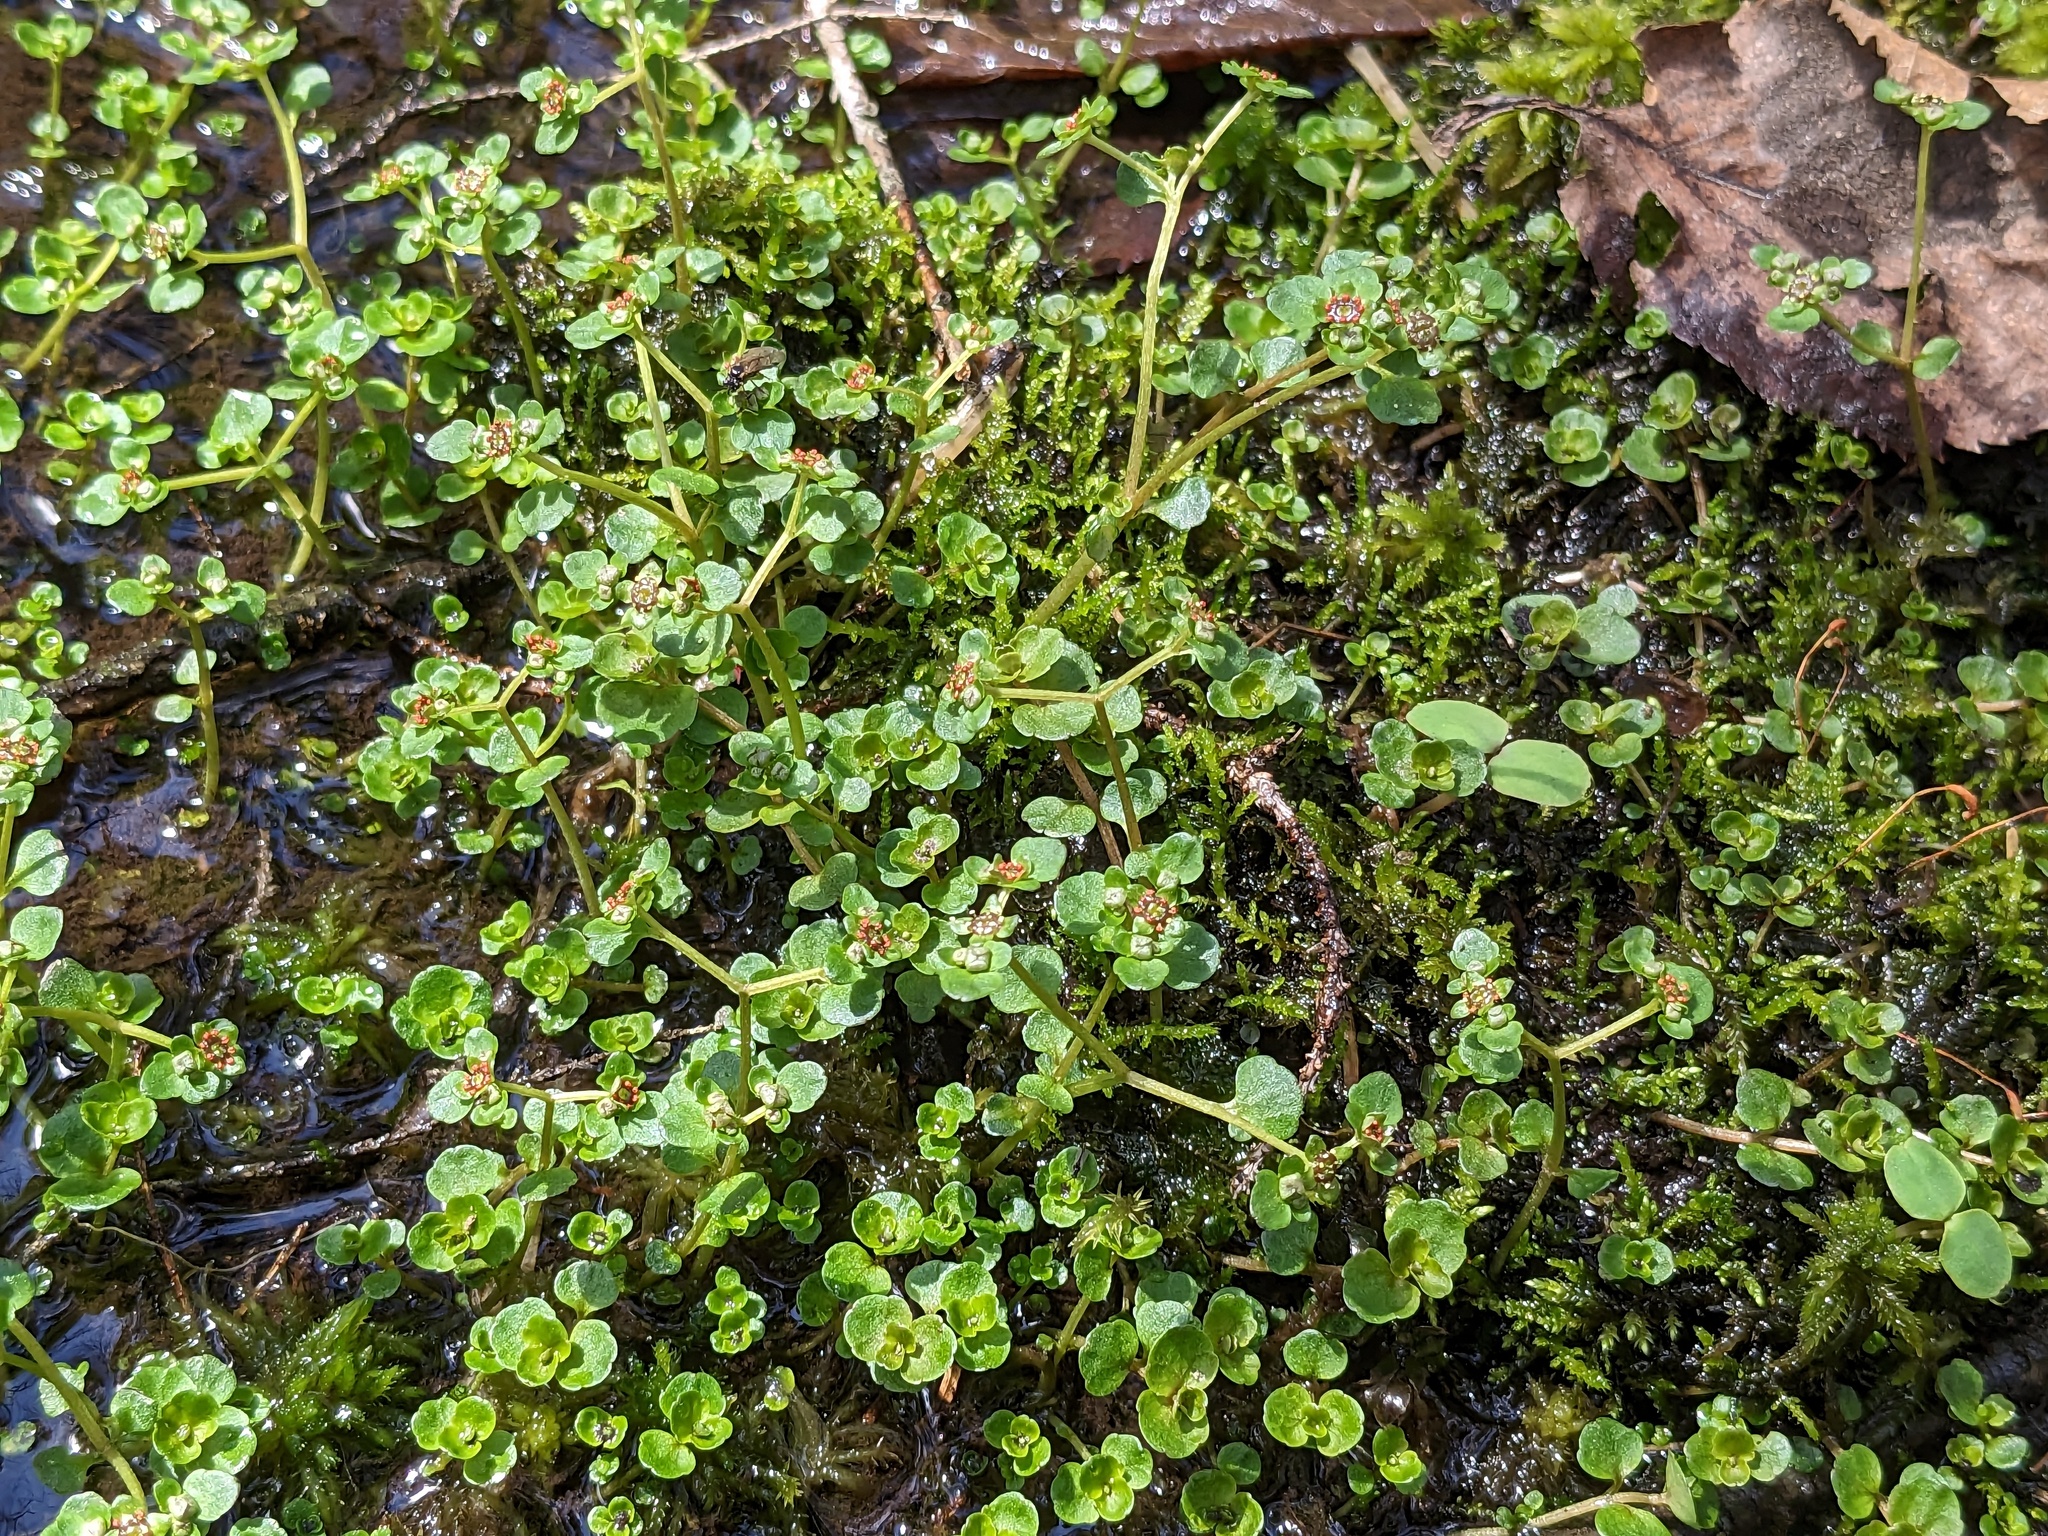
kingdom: Plantae
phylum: Tracheophyta
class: Magnoliopsida
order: Saxifragales
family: Saxifragaceae
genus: Chrysosplenium
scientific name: Chrysosplenium americanum
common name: American golden-saxifrage
